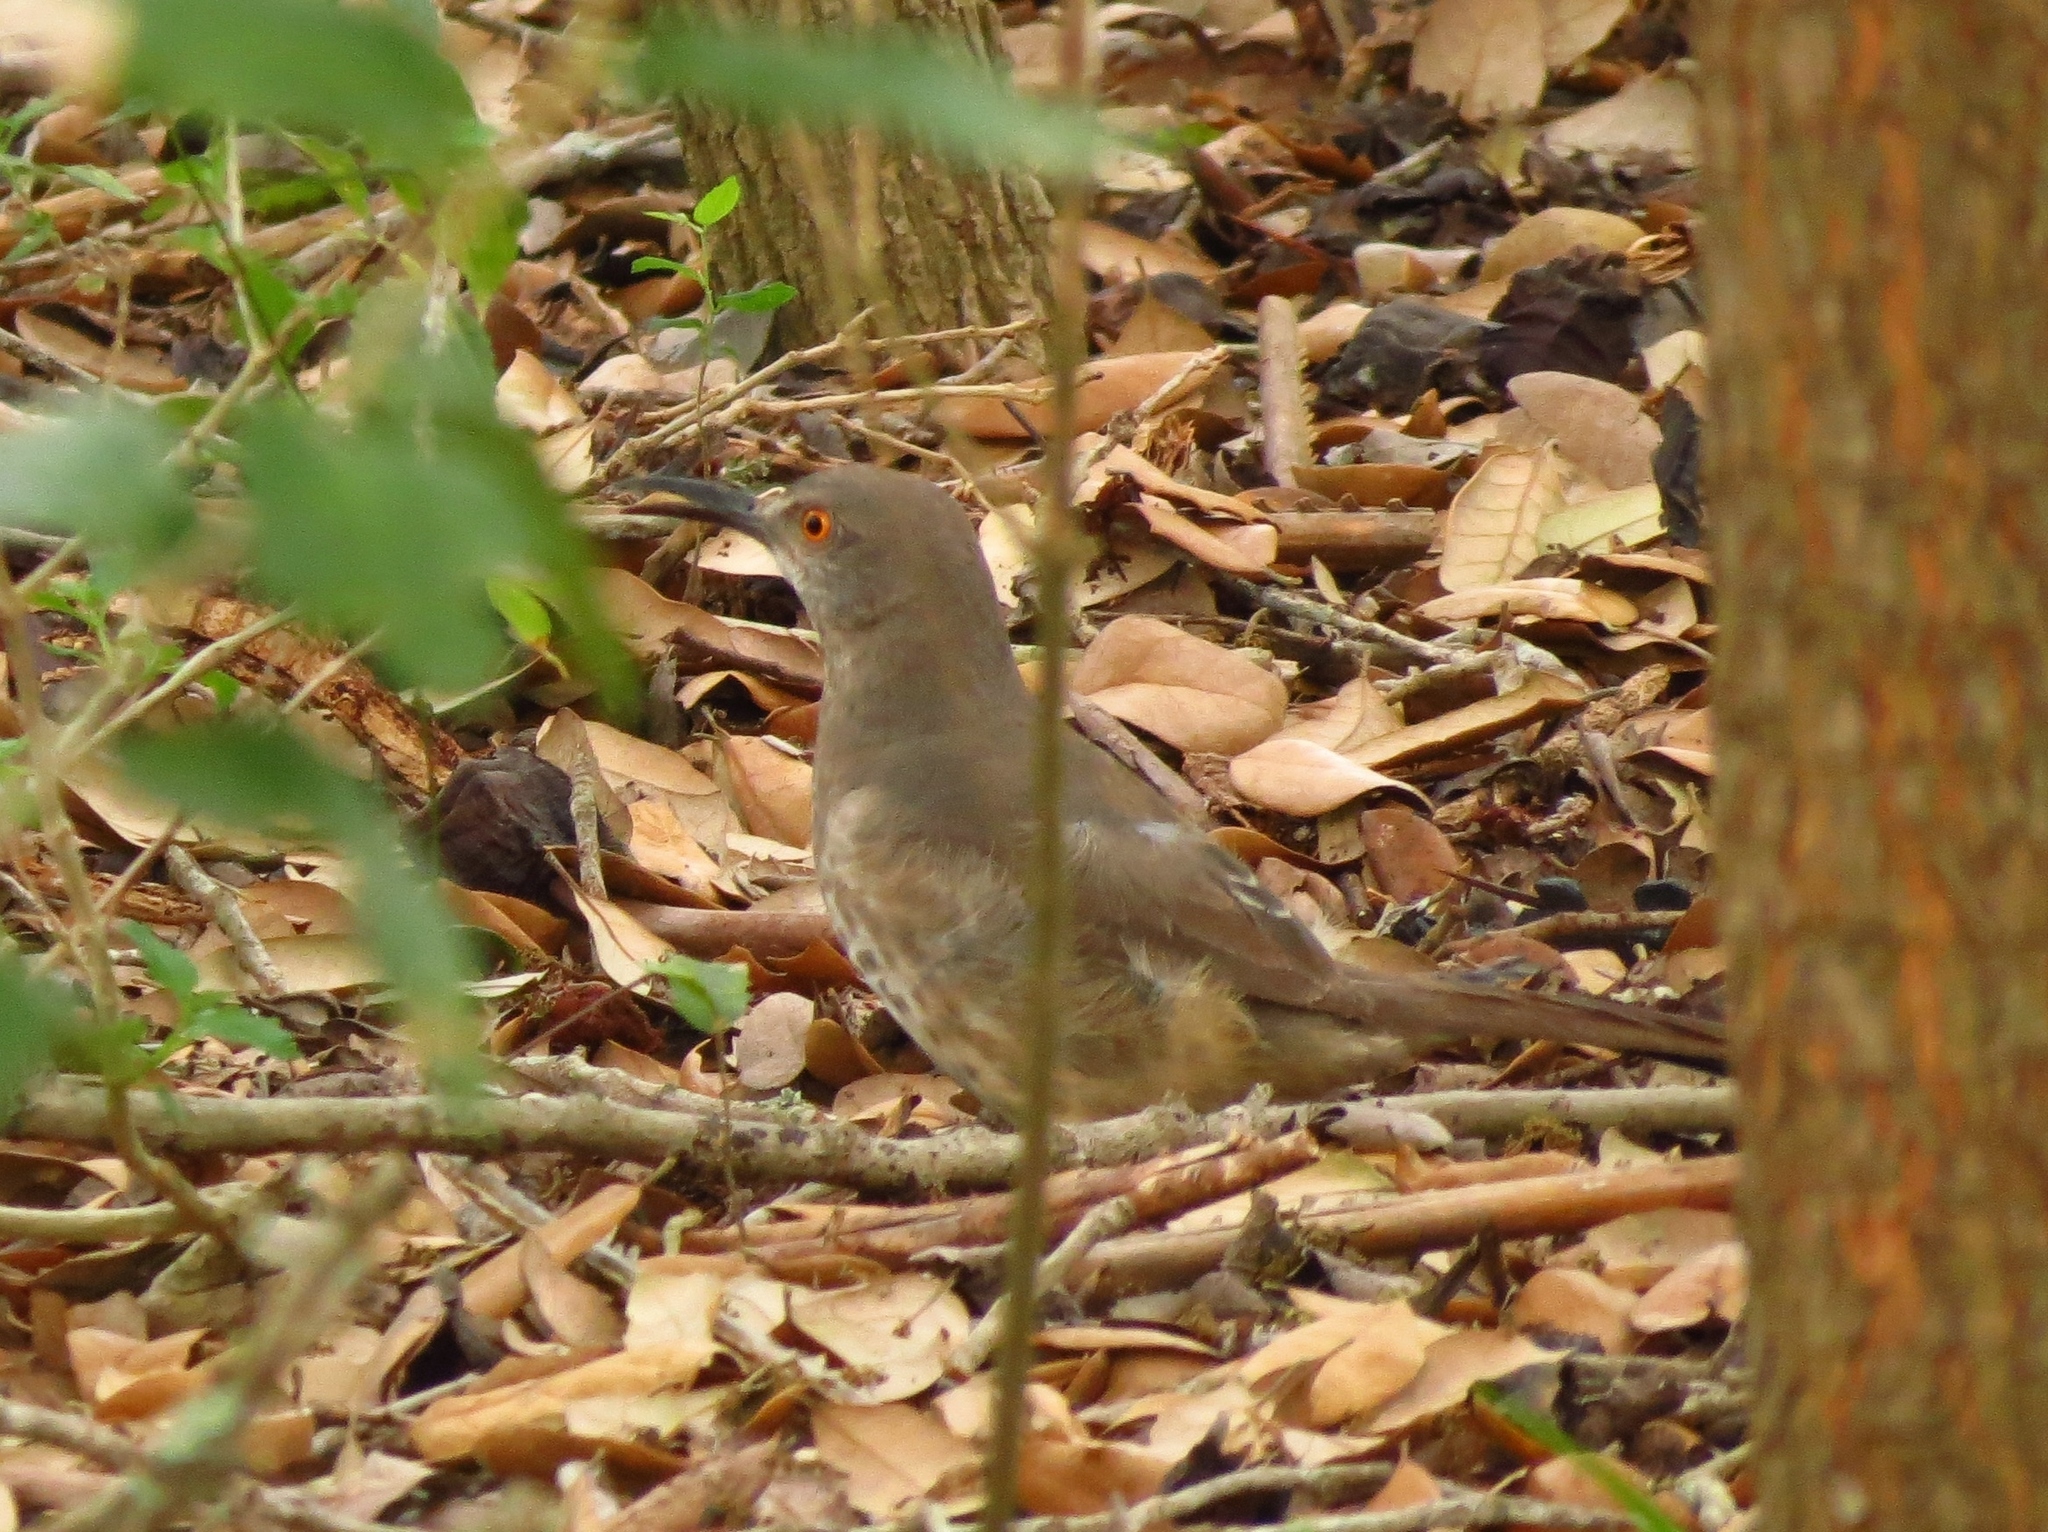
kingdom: Animalia
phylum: Chordata
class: Aves
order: Passeriformes
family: Mimidae
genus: Toxostoma
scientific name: Toxostoma curvirostre
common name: Curve-billed thrasher
